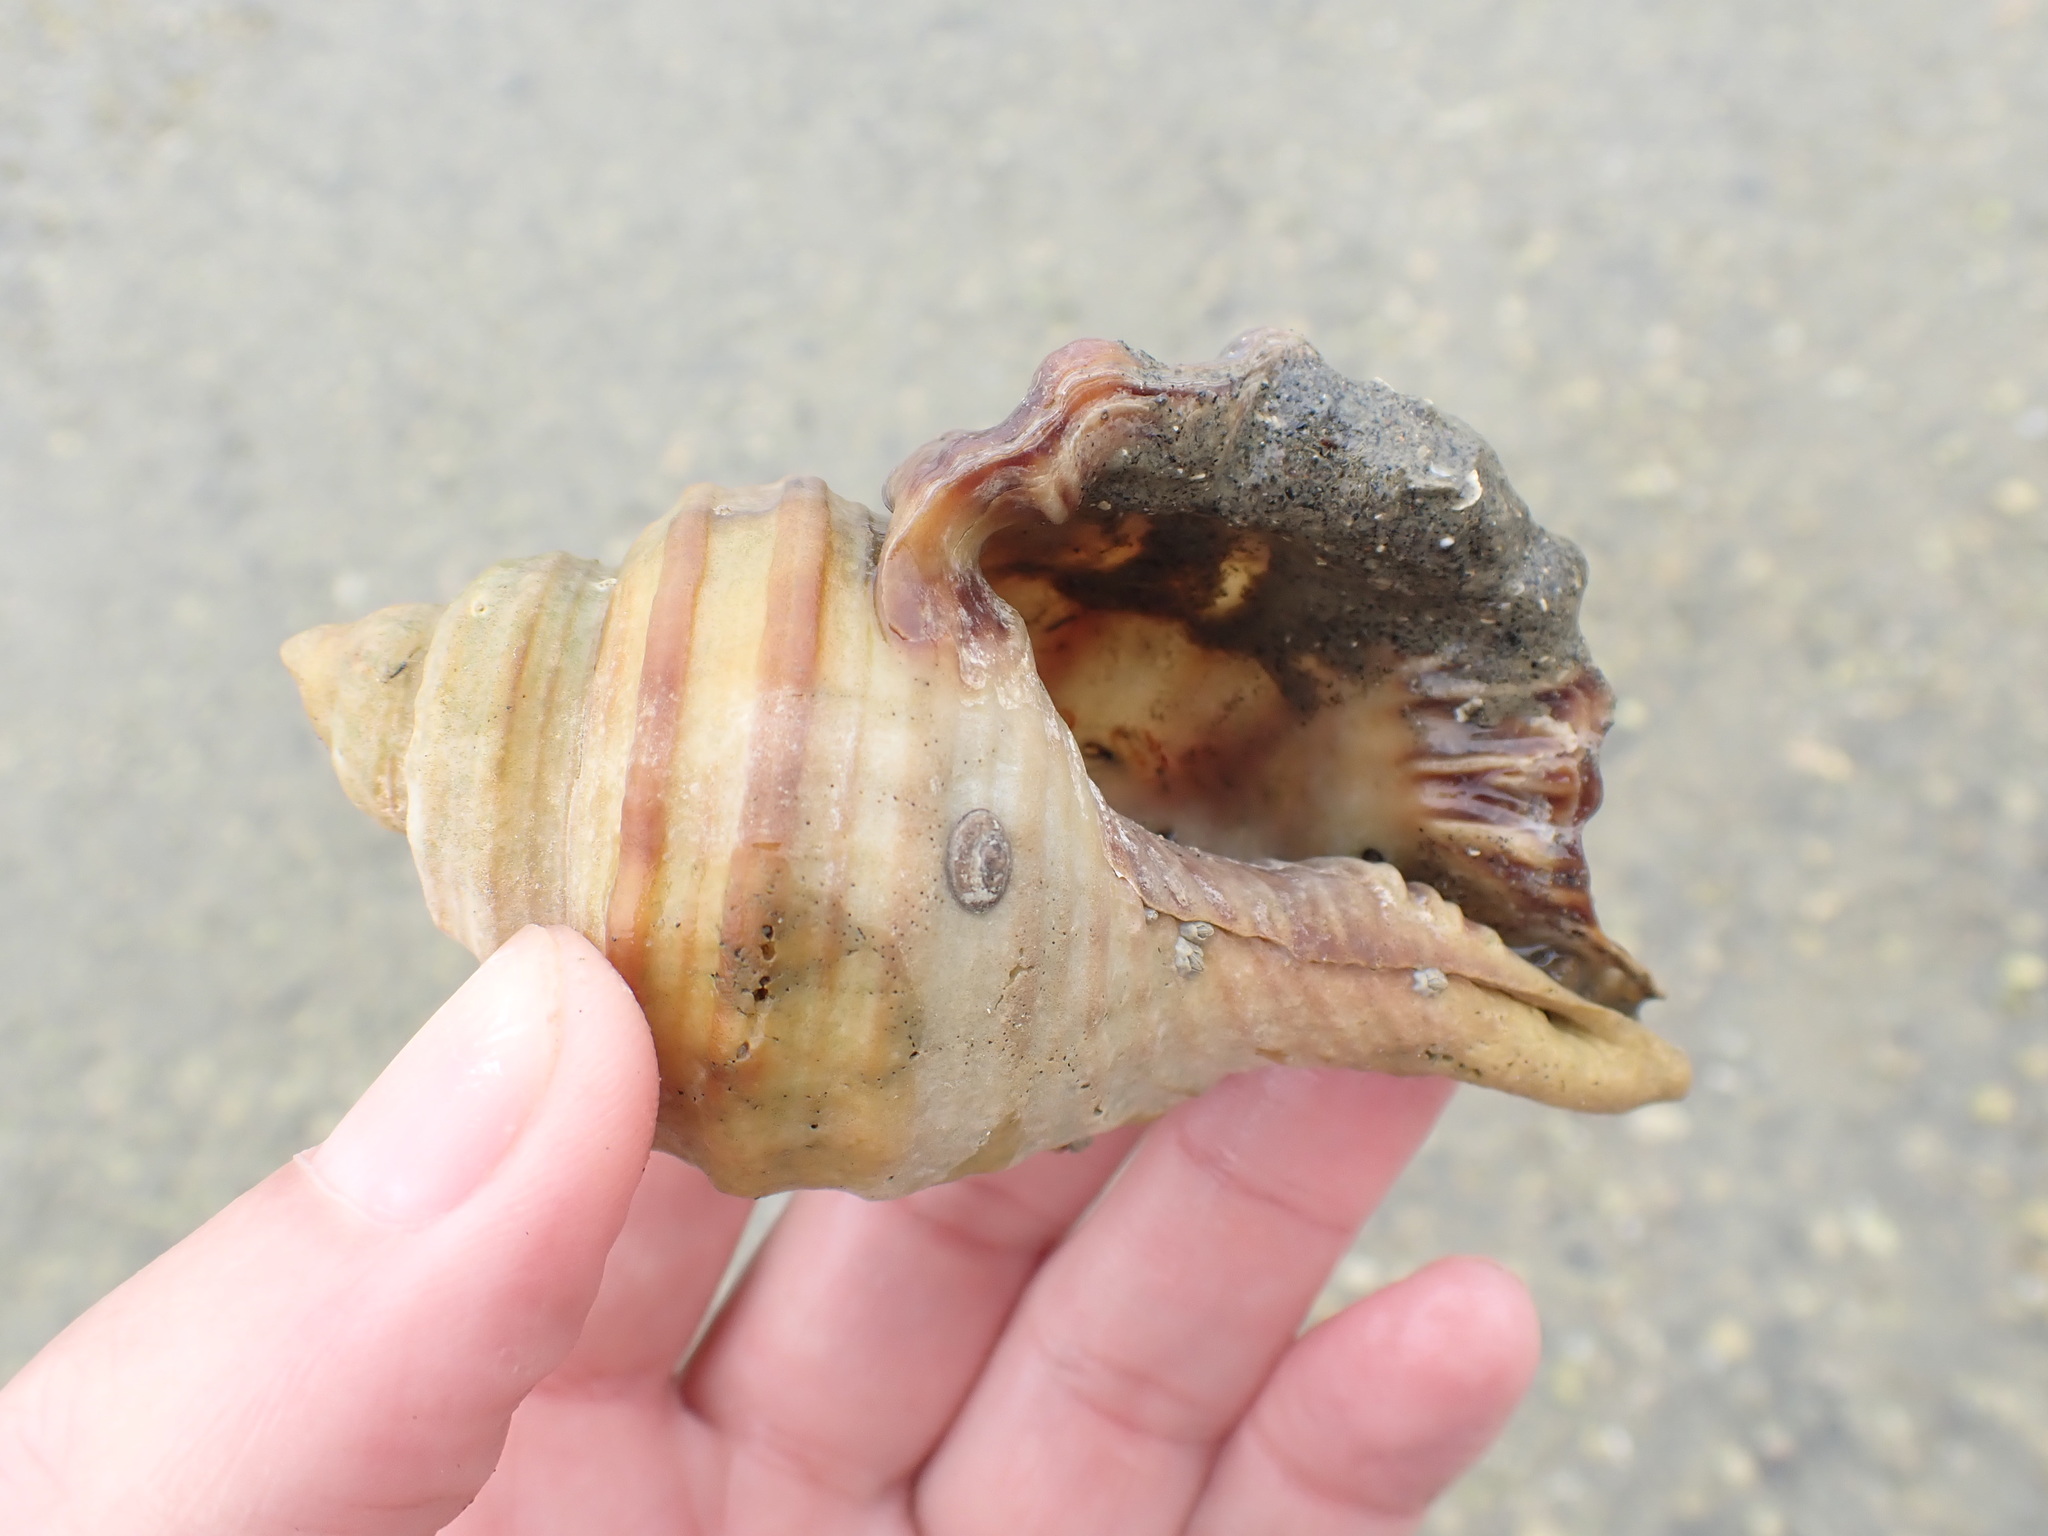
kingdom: Animalia
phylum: Mollusca
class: Gastropoda
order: Littorinimorpha
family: Cymatiidae
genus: Monoplex
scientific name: Monoplex parthenopeus
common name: Giant triton
